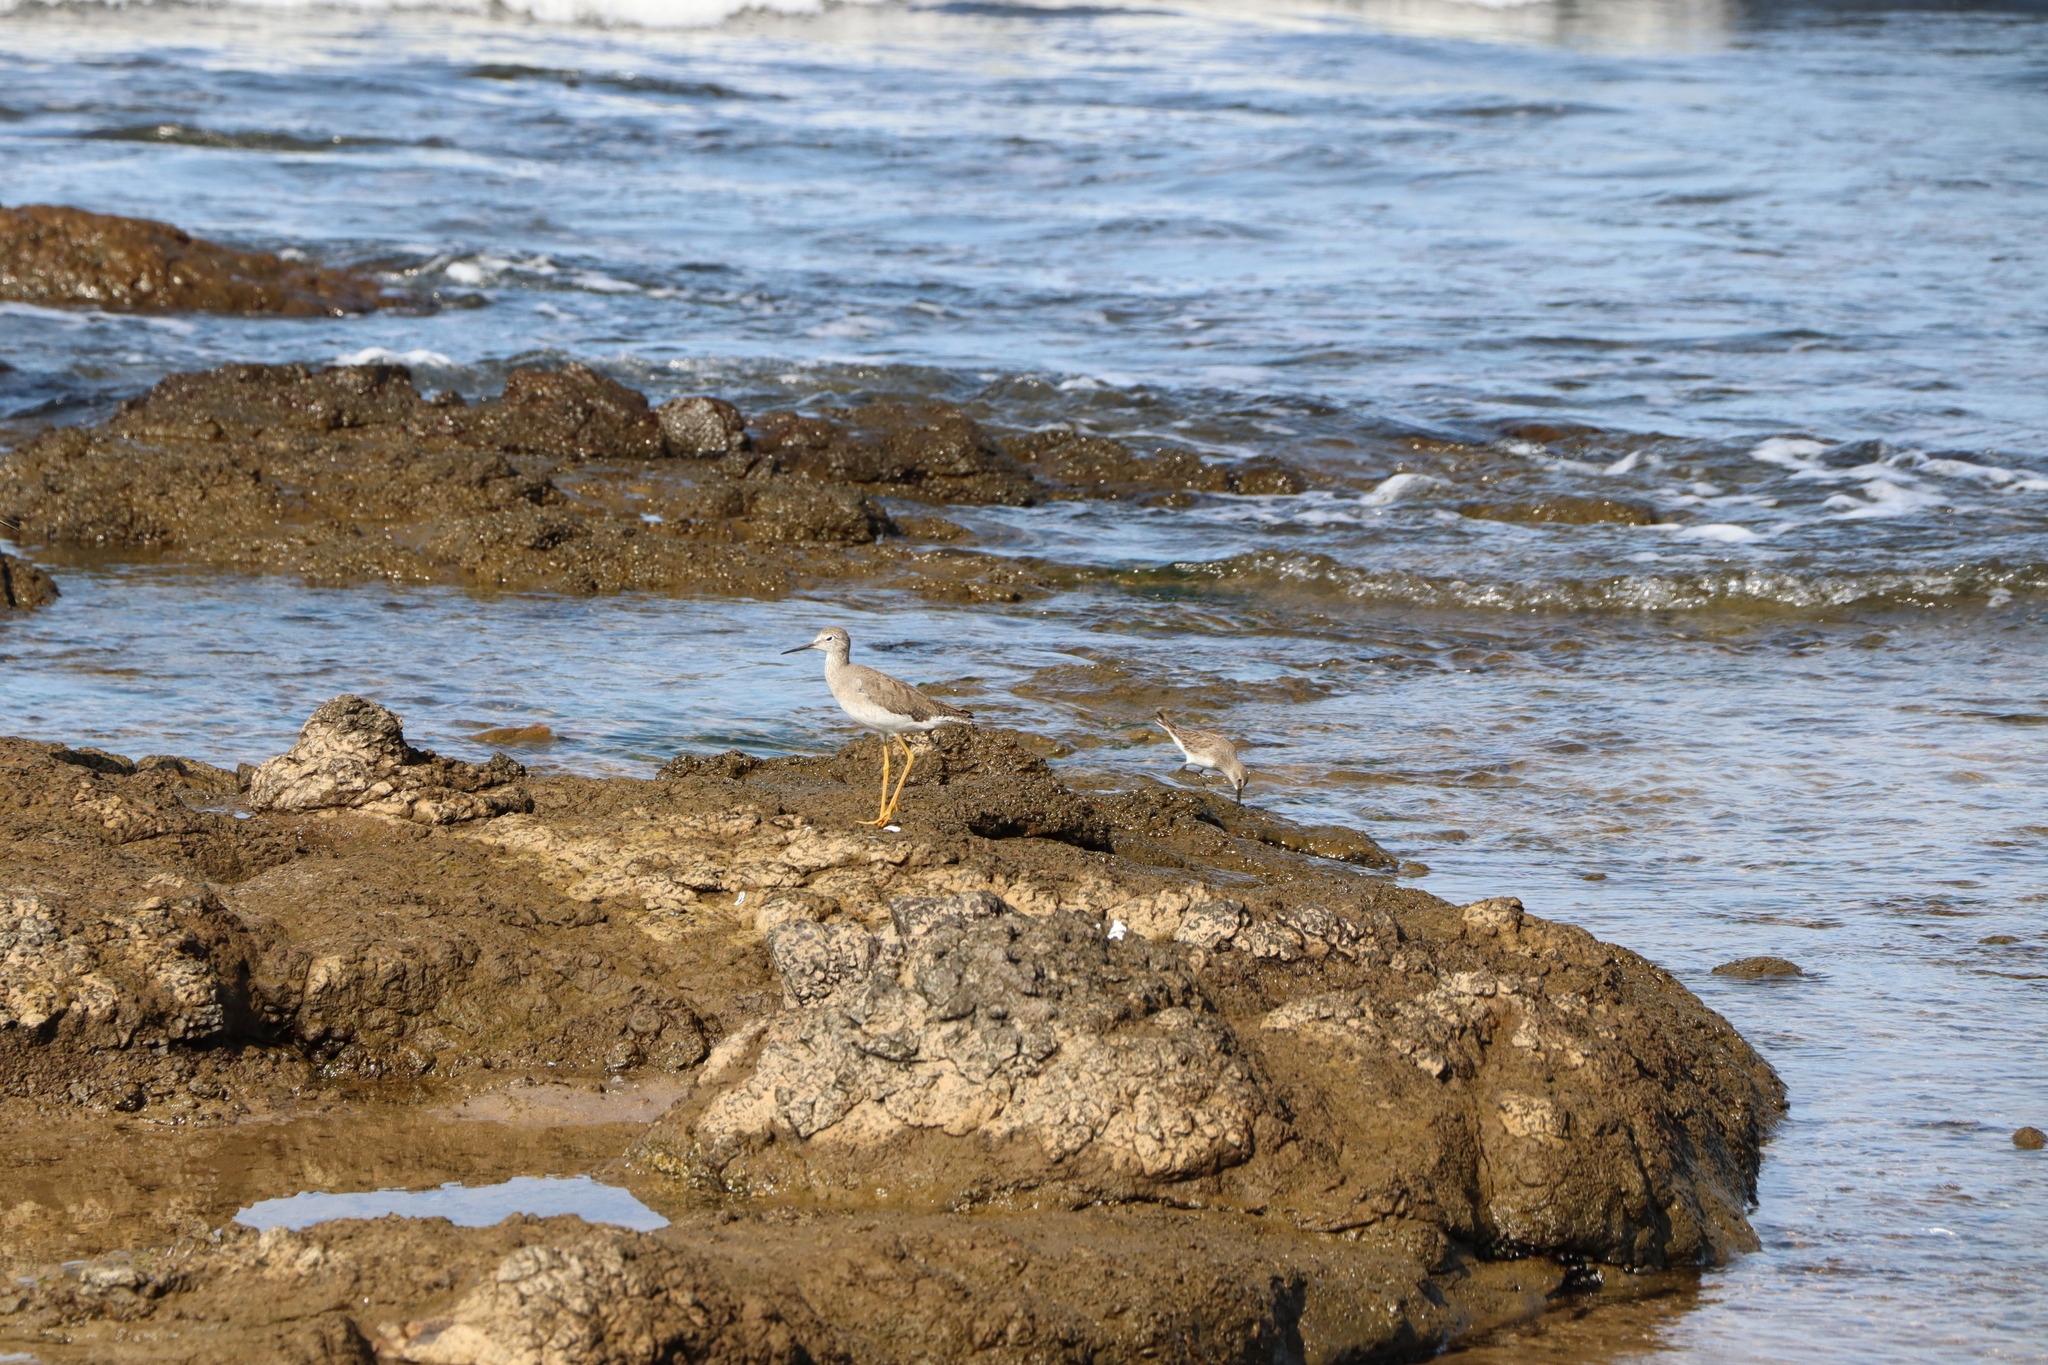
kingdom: Animalia
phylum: Chordata
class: Aves
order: Charadriiformes
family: Scolopacidae
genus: Tringa
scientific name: Tringa flavipes
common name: Lesser yellowlegs
